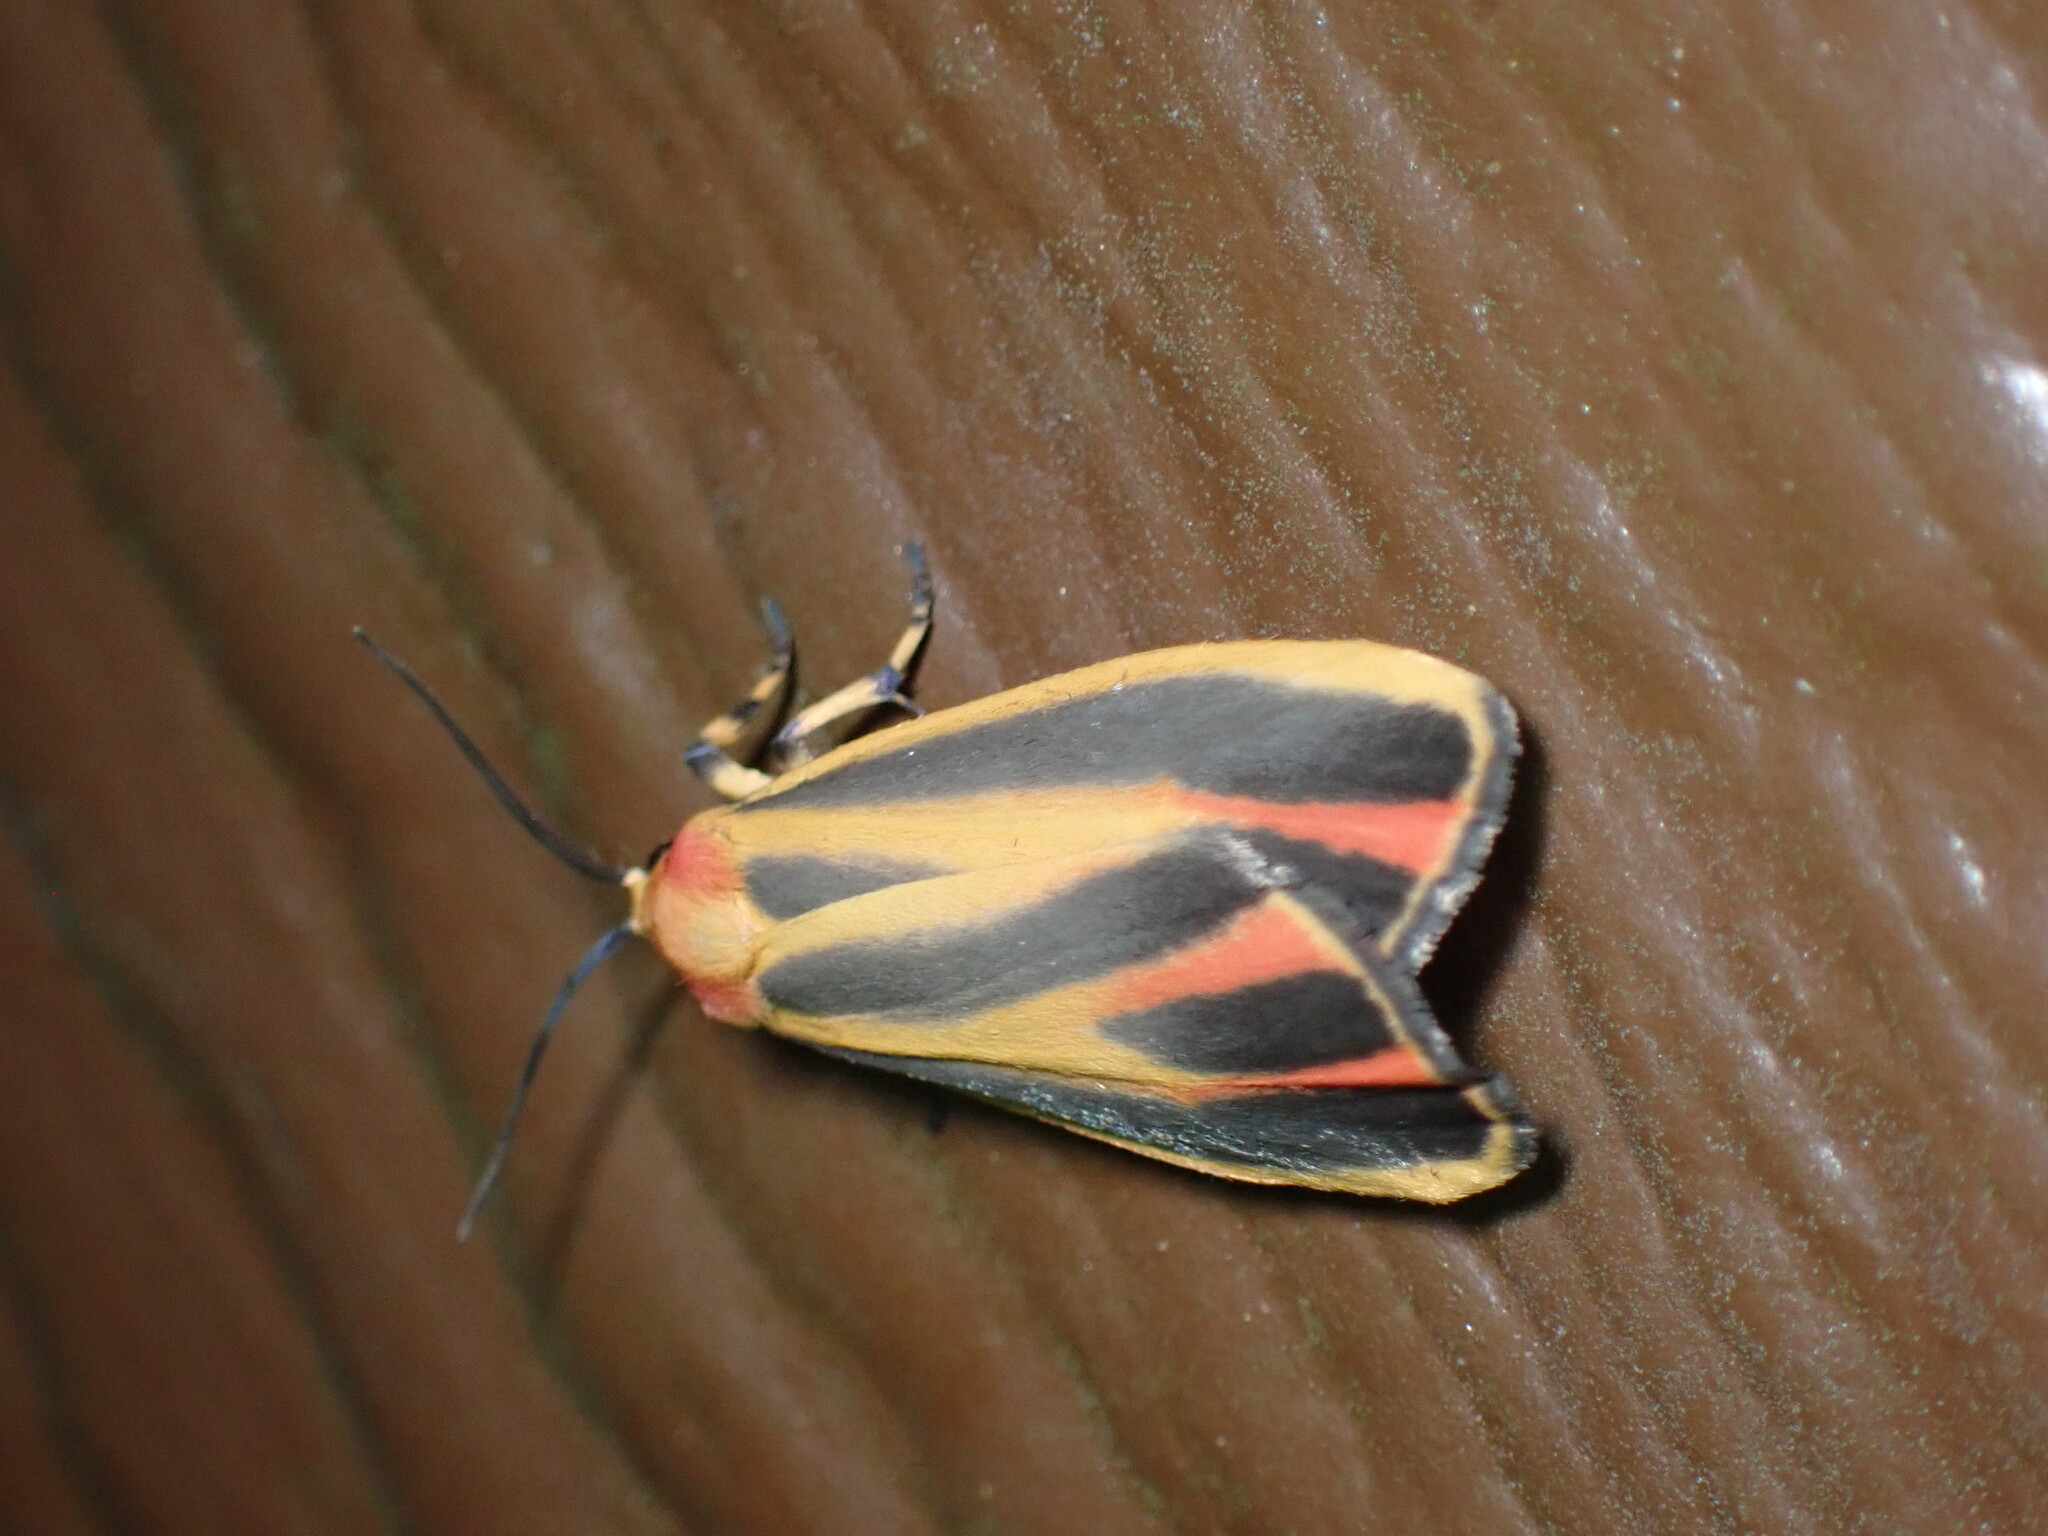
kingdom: Animalia
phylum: Arthropoda
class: Insecta
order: Lepidoptera
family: Erebidae
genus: Hypoprepia
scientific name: Hypoprepia fucosa
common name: Painted lichen moth
